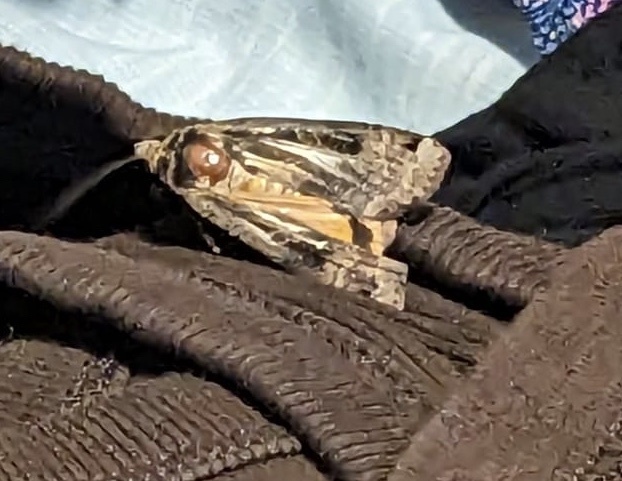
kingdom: Animalia
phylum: Arthropoda
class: Insecta
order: Lepidoptera
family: Noctuidae
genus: Noctua
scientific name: Noctua pronuba
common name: Large yellow underwing
